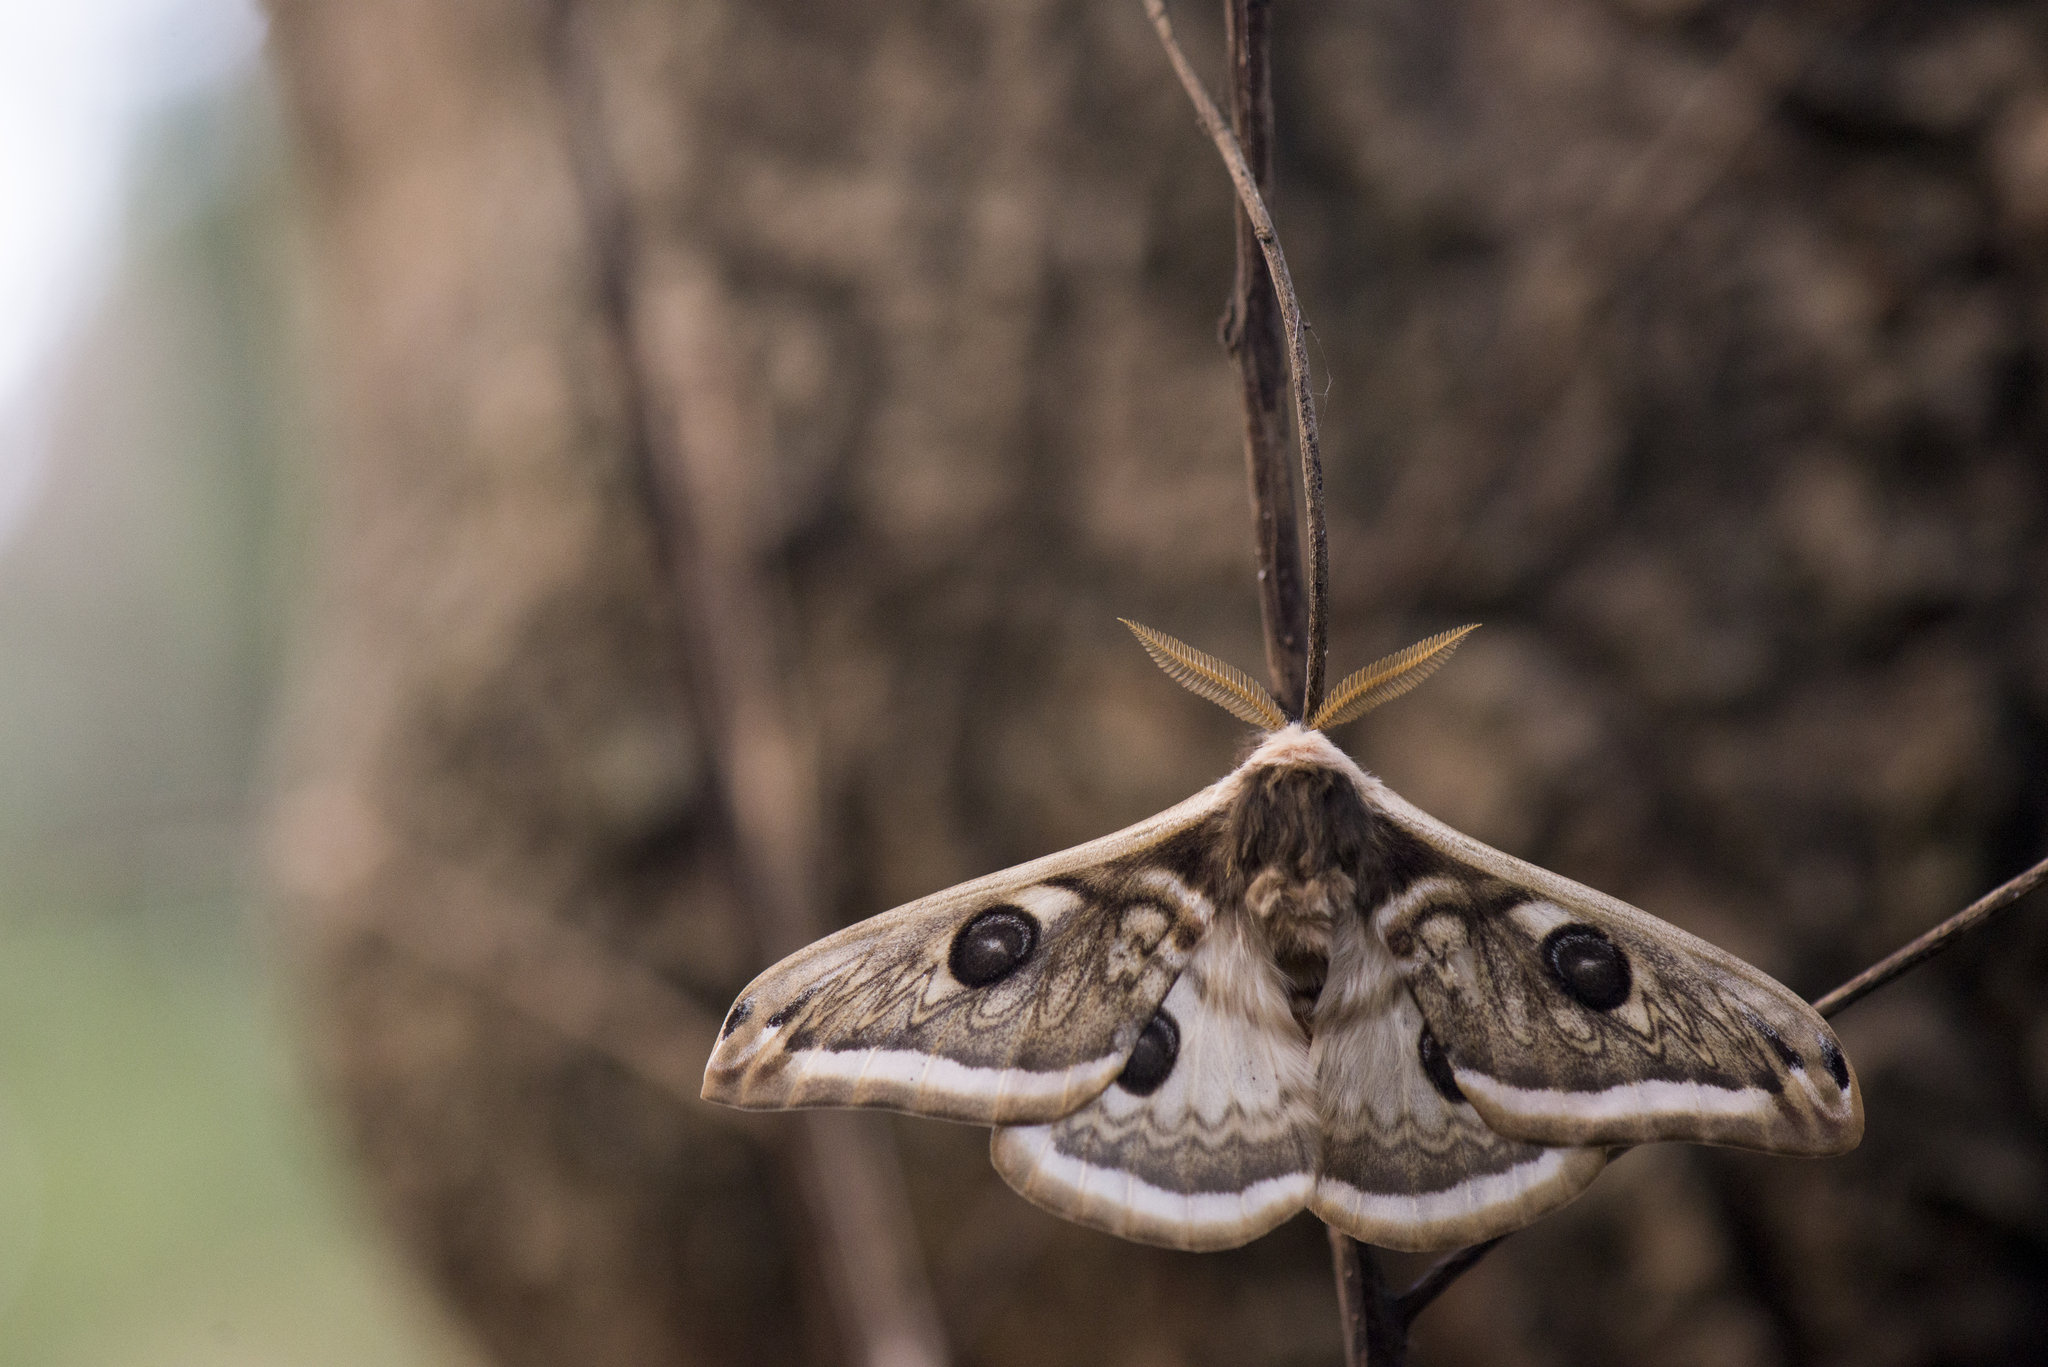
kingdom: Animalia
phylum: Arthropoda
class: Insecta
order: Lepidoptera
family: Saturniidae
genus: Saturnia
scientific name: Saturnia pyretorum
